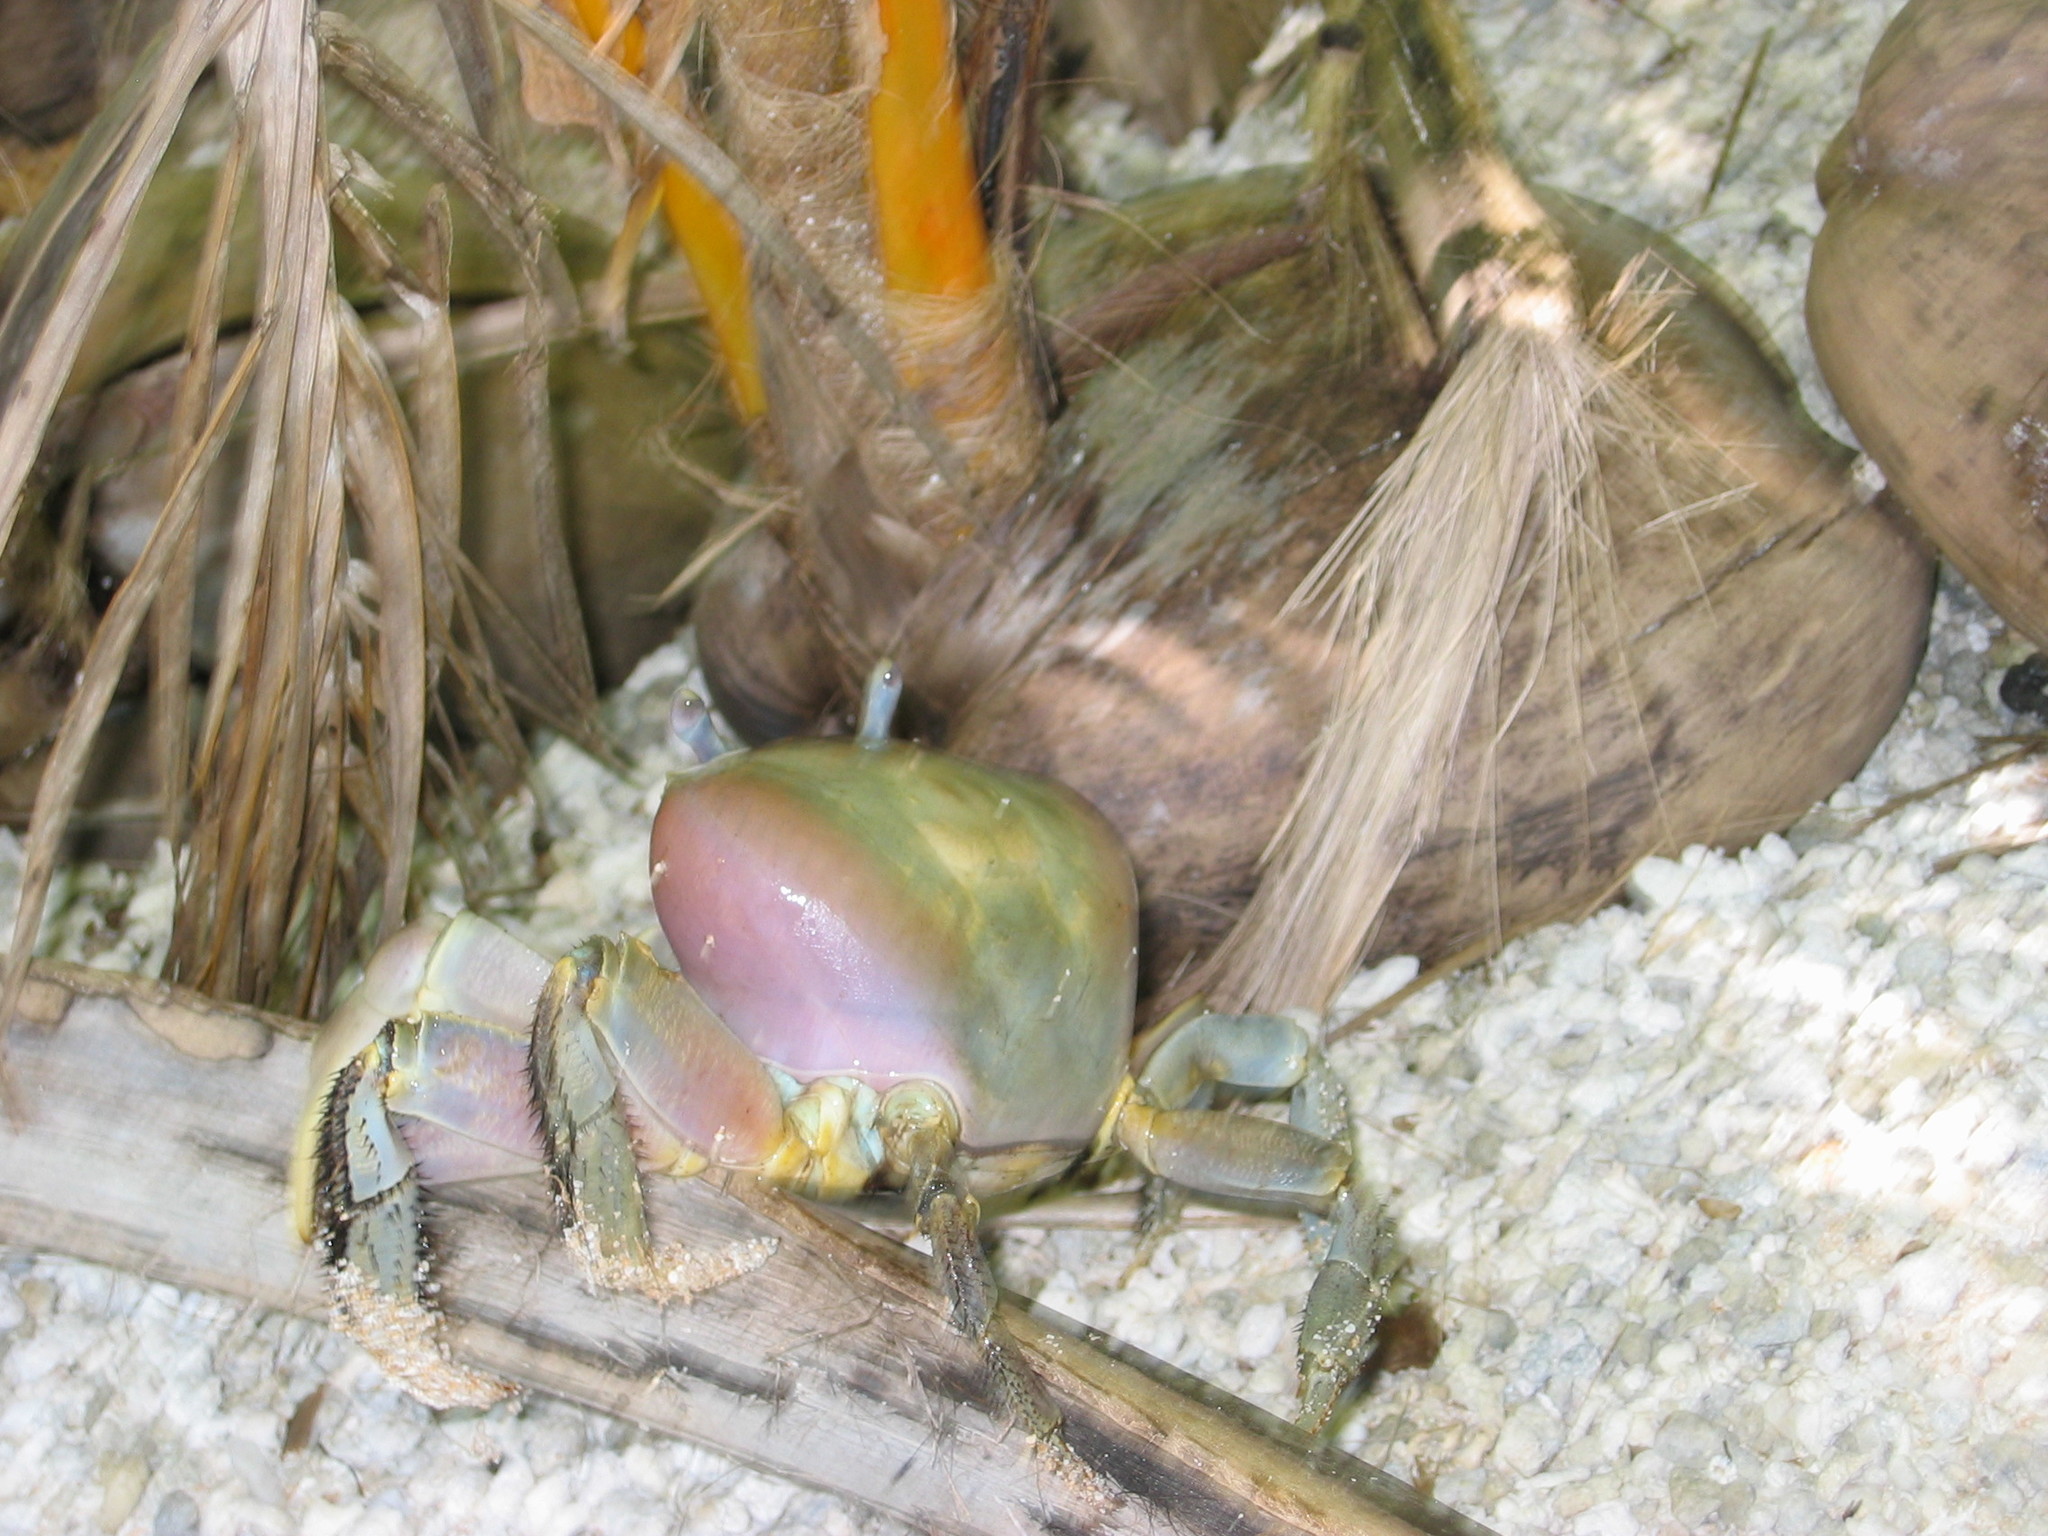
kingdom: Animalia
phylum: Arthropoda
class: Malacostraca
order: Decapoda
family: Gecarcinidae
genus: Cardisoma
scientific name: Cardisoma carnifex
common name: Brown land crab
